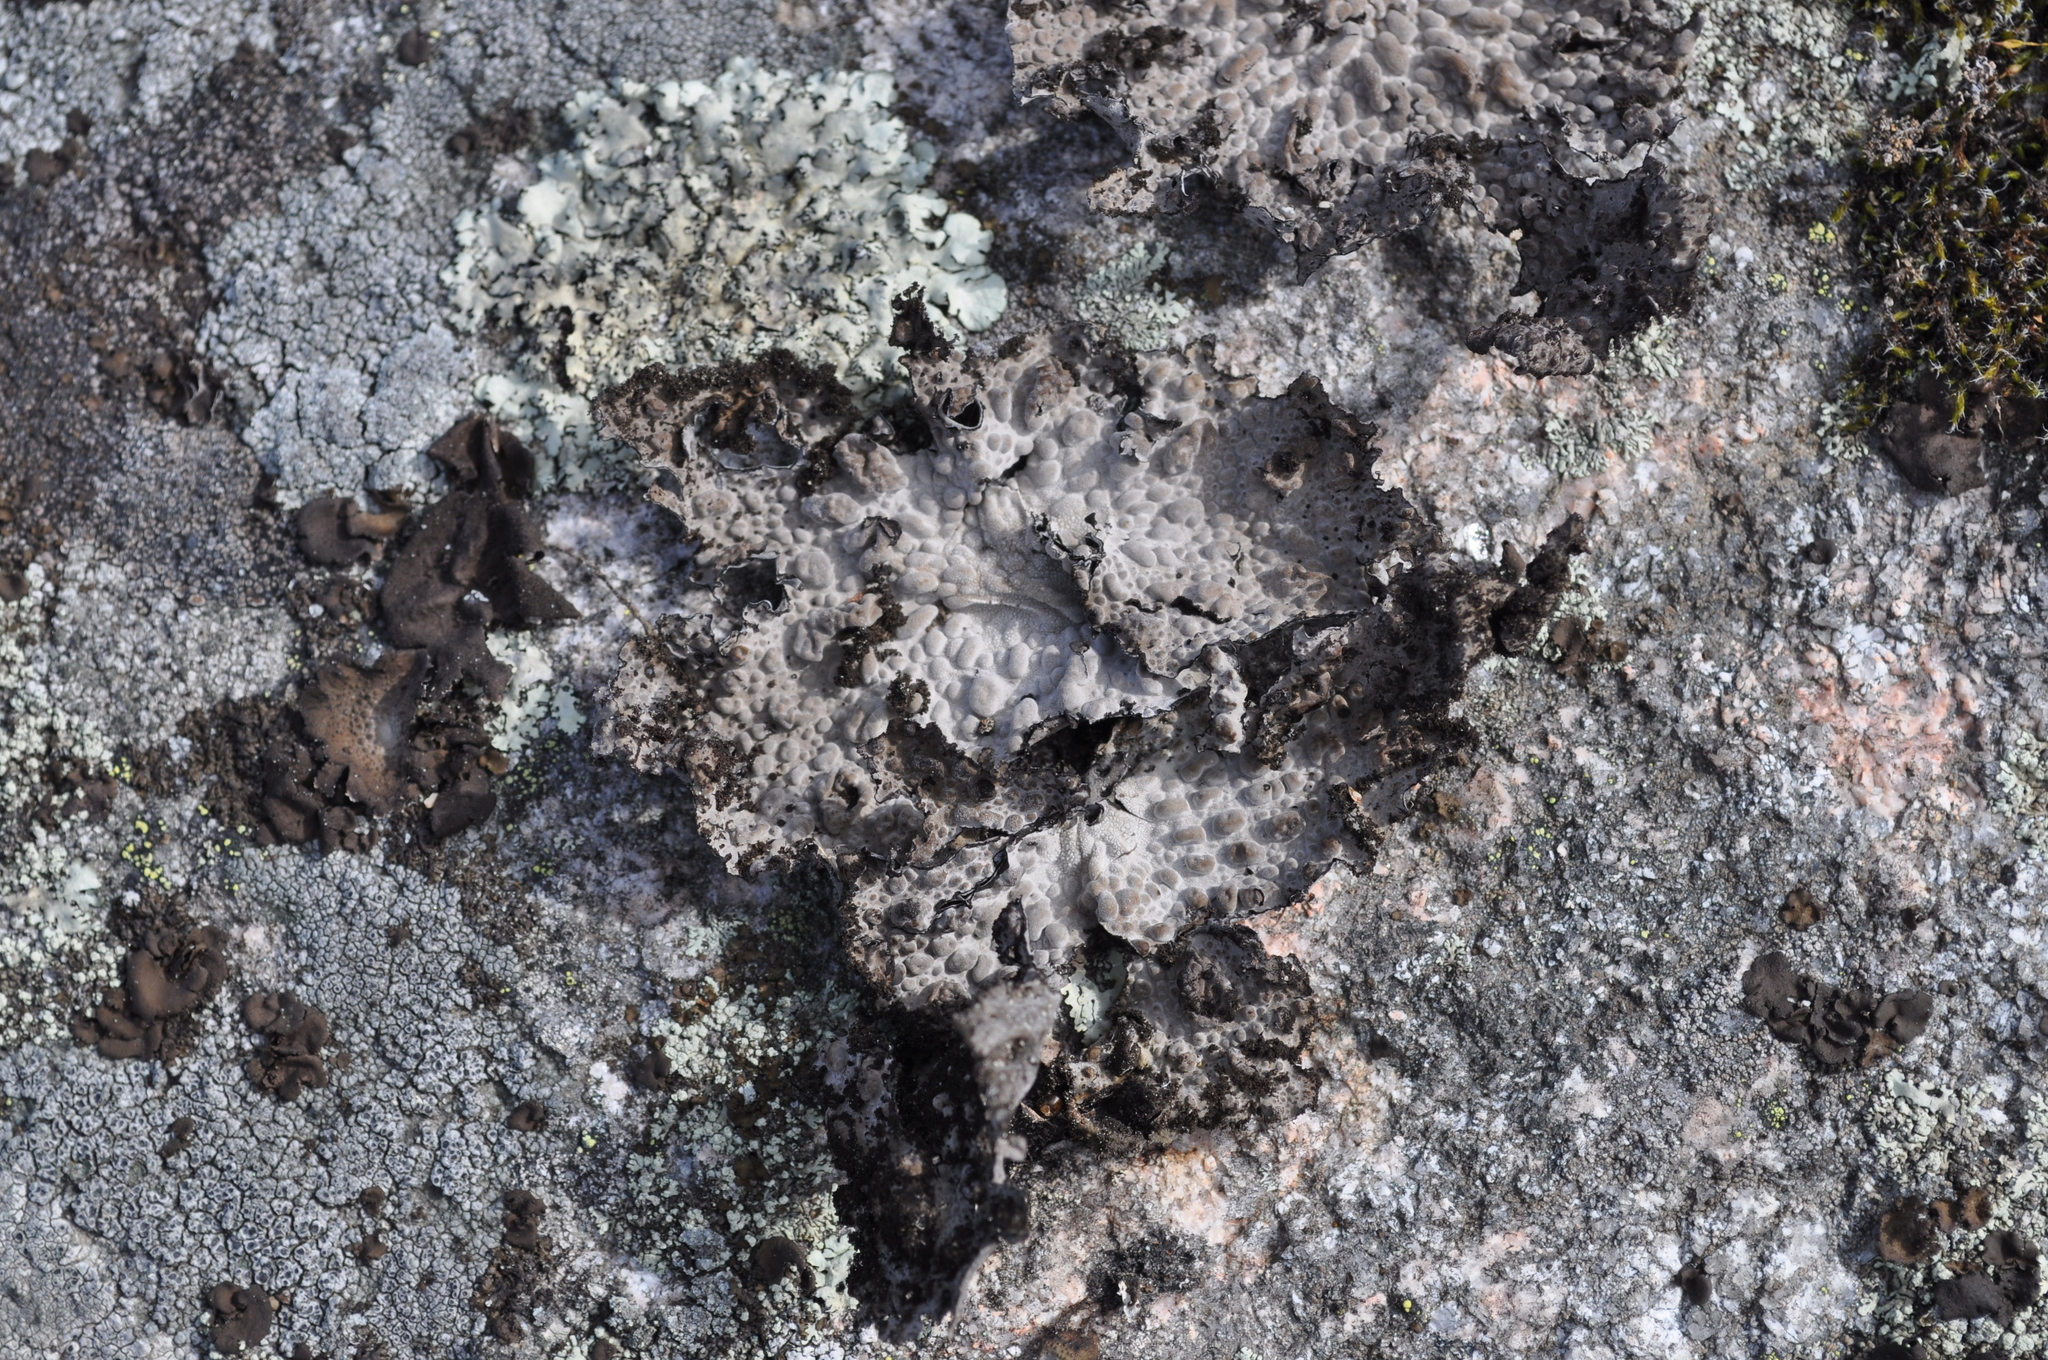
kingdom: Fungi
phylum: Ascomycota
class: Lecanoromycetes
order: Umbilicariales
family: Umbilicariaceae
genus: Lasallia
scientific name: Lasallia pustulata
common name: Blistered toadskin lichen
